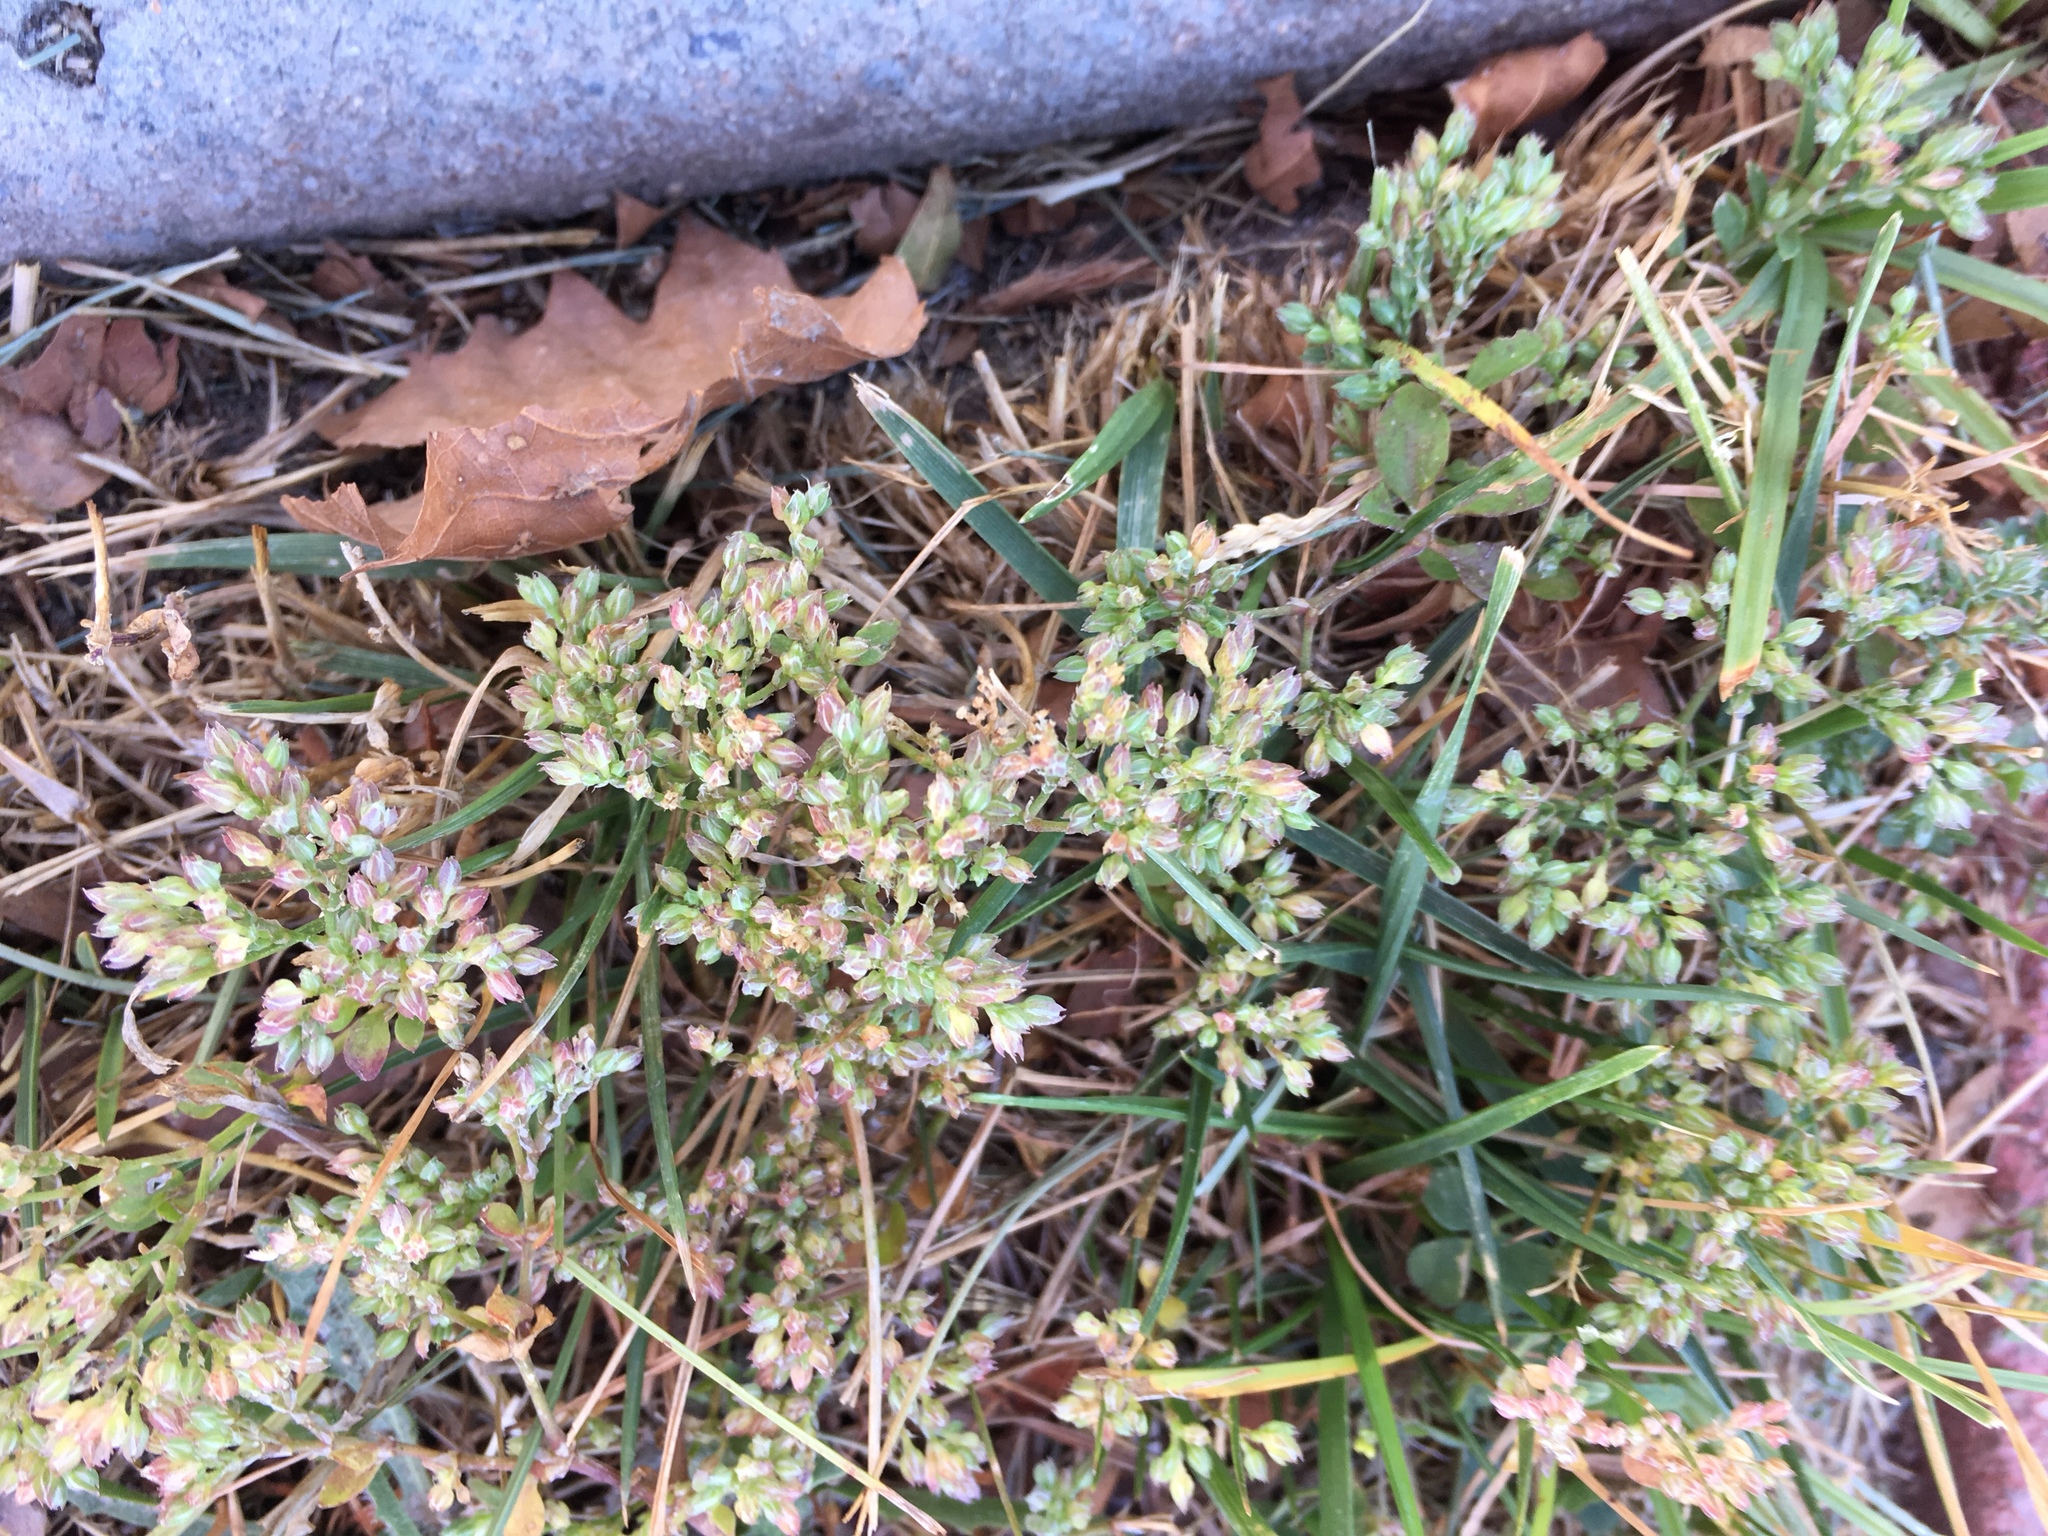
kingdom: Plantae
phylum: Tracheophyta
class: Magnoliopsida
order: Caryophyllales
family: Caryophyllaceae
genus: Polycarpon
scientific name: Polycarpon tetraphyllum
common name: Four-leaved all-seed
